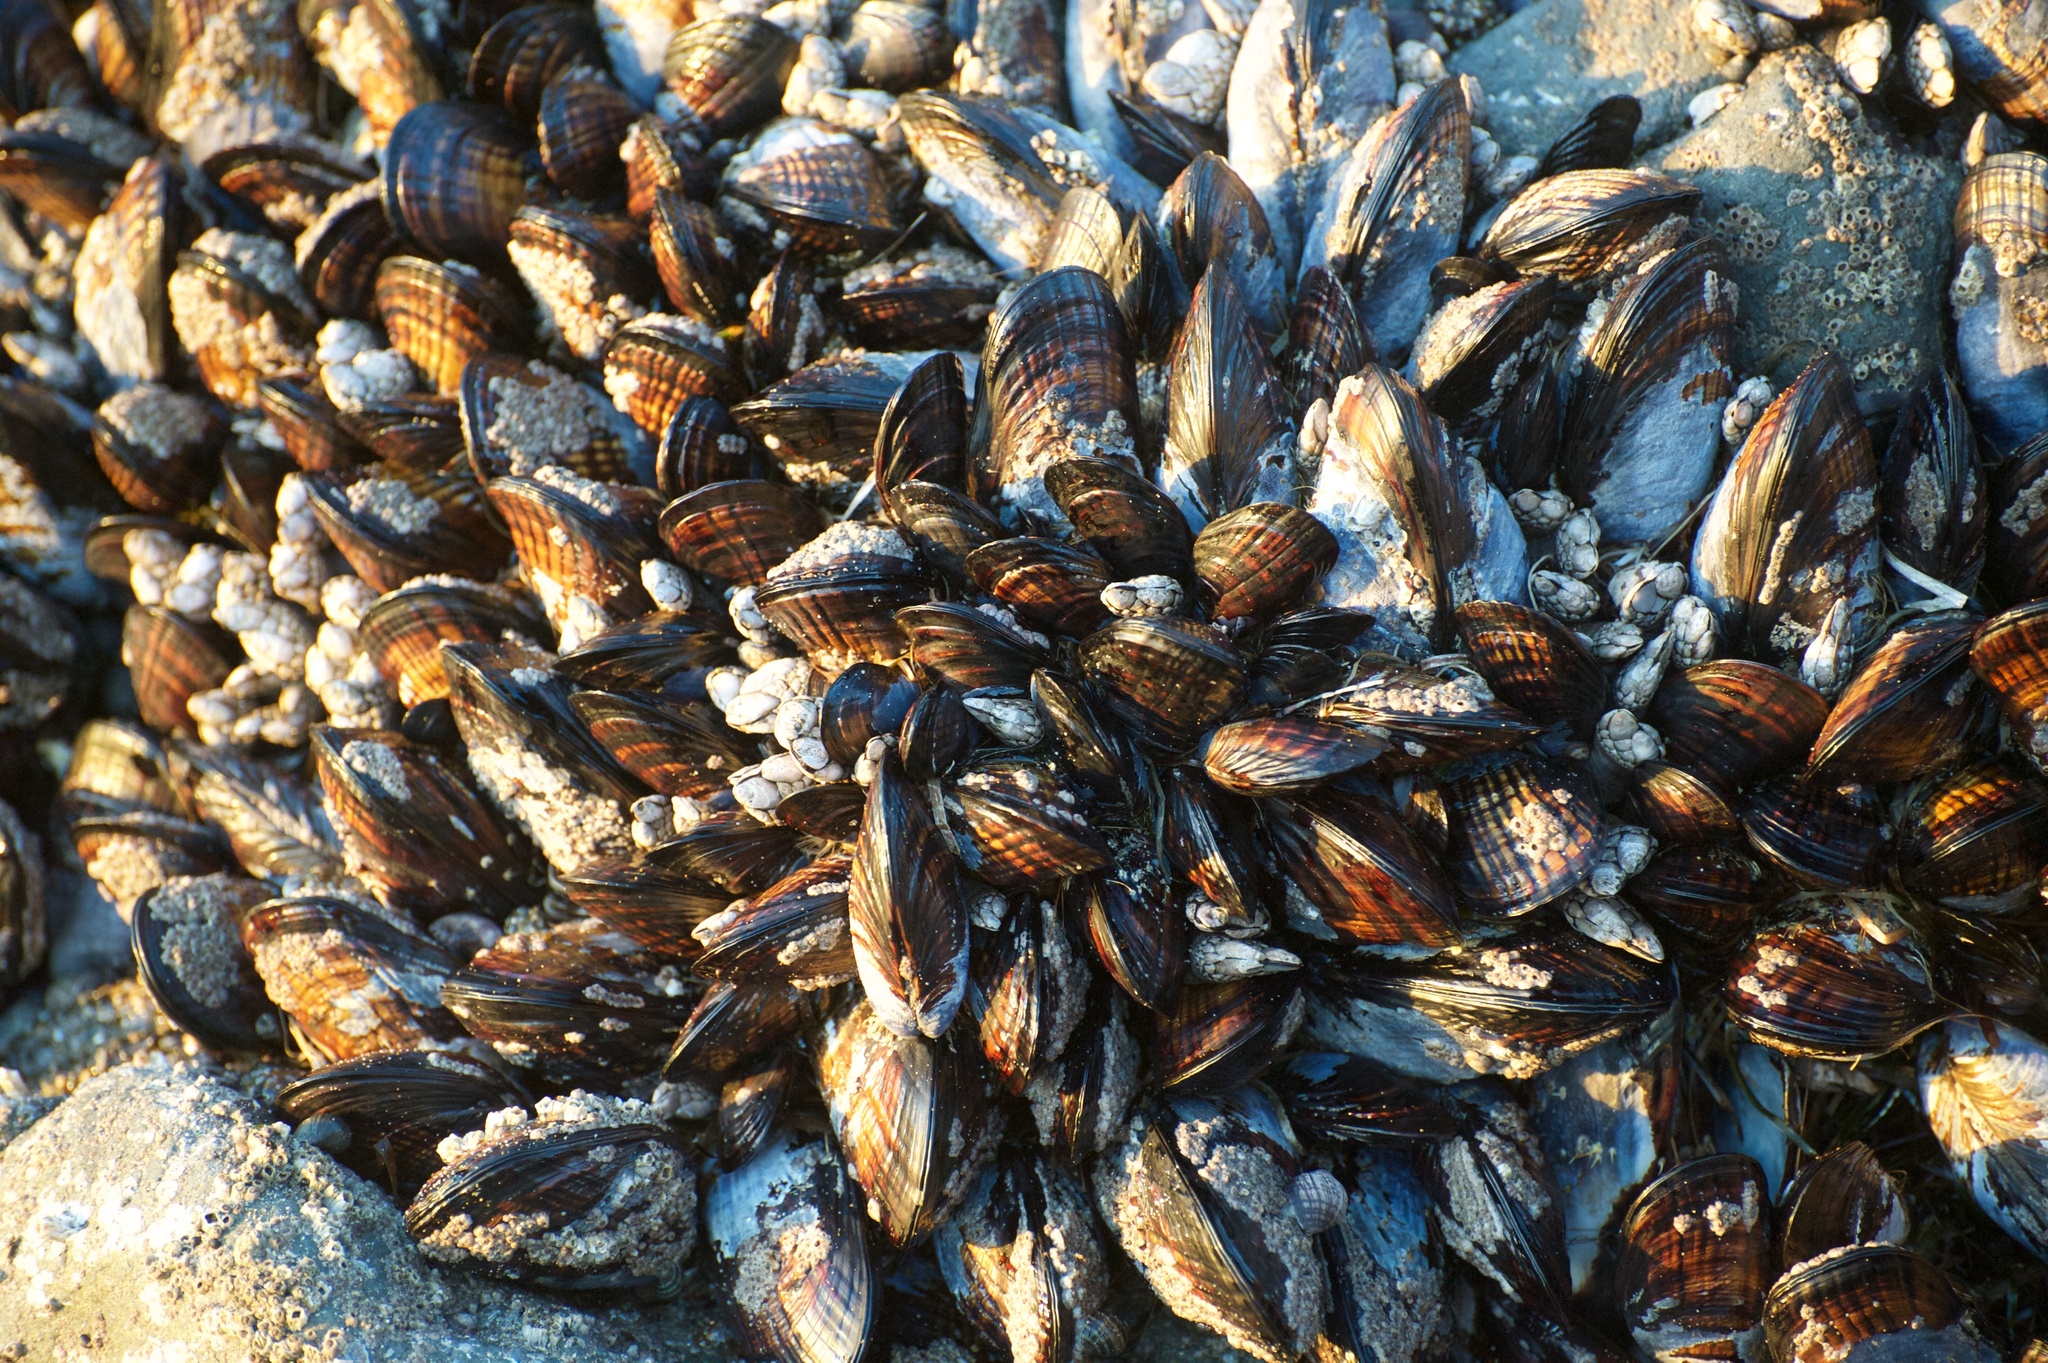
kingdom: Animalia
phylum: Mollusca
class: Bivalvia
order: Mytilida
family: Mytilidae
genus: Mytilus
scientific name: Mytilus californianus
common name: California mussel
